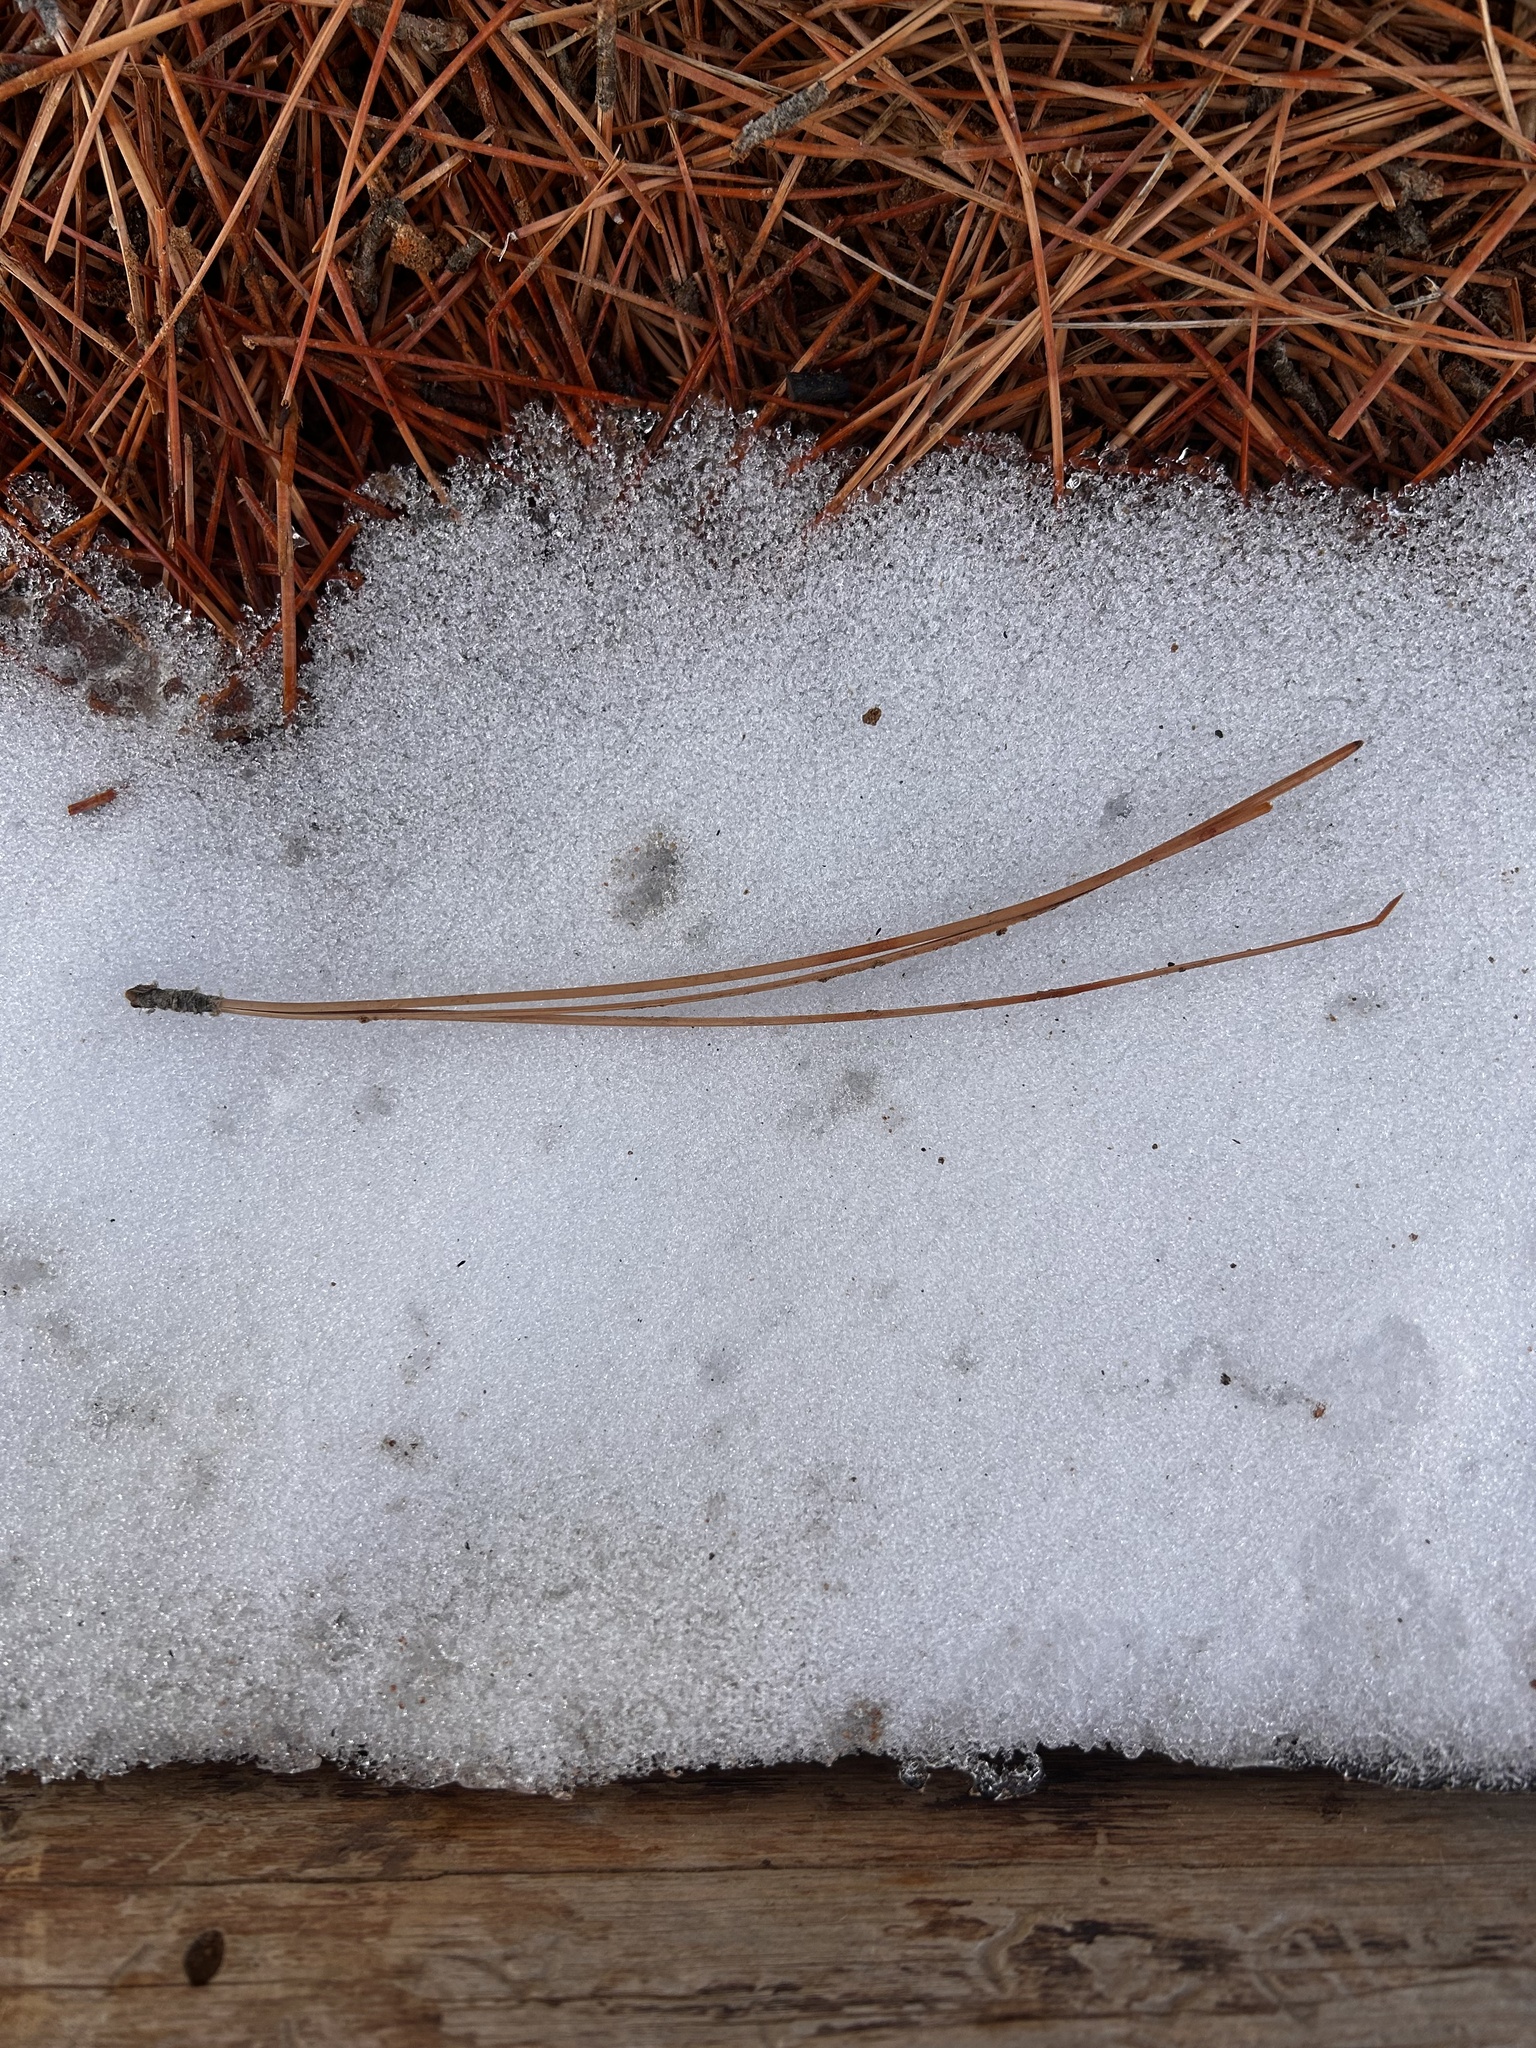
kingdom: Plantae
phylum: Tracheophyta
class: Pinopsida
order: Pinales
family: Pinaceae
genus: Pinus
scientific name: Pinus ponderosa
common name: Western yellow-pine
